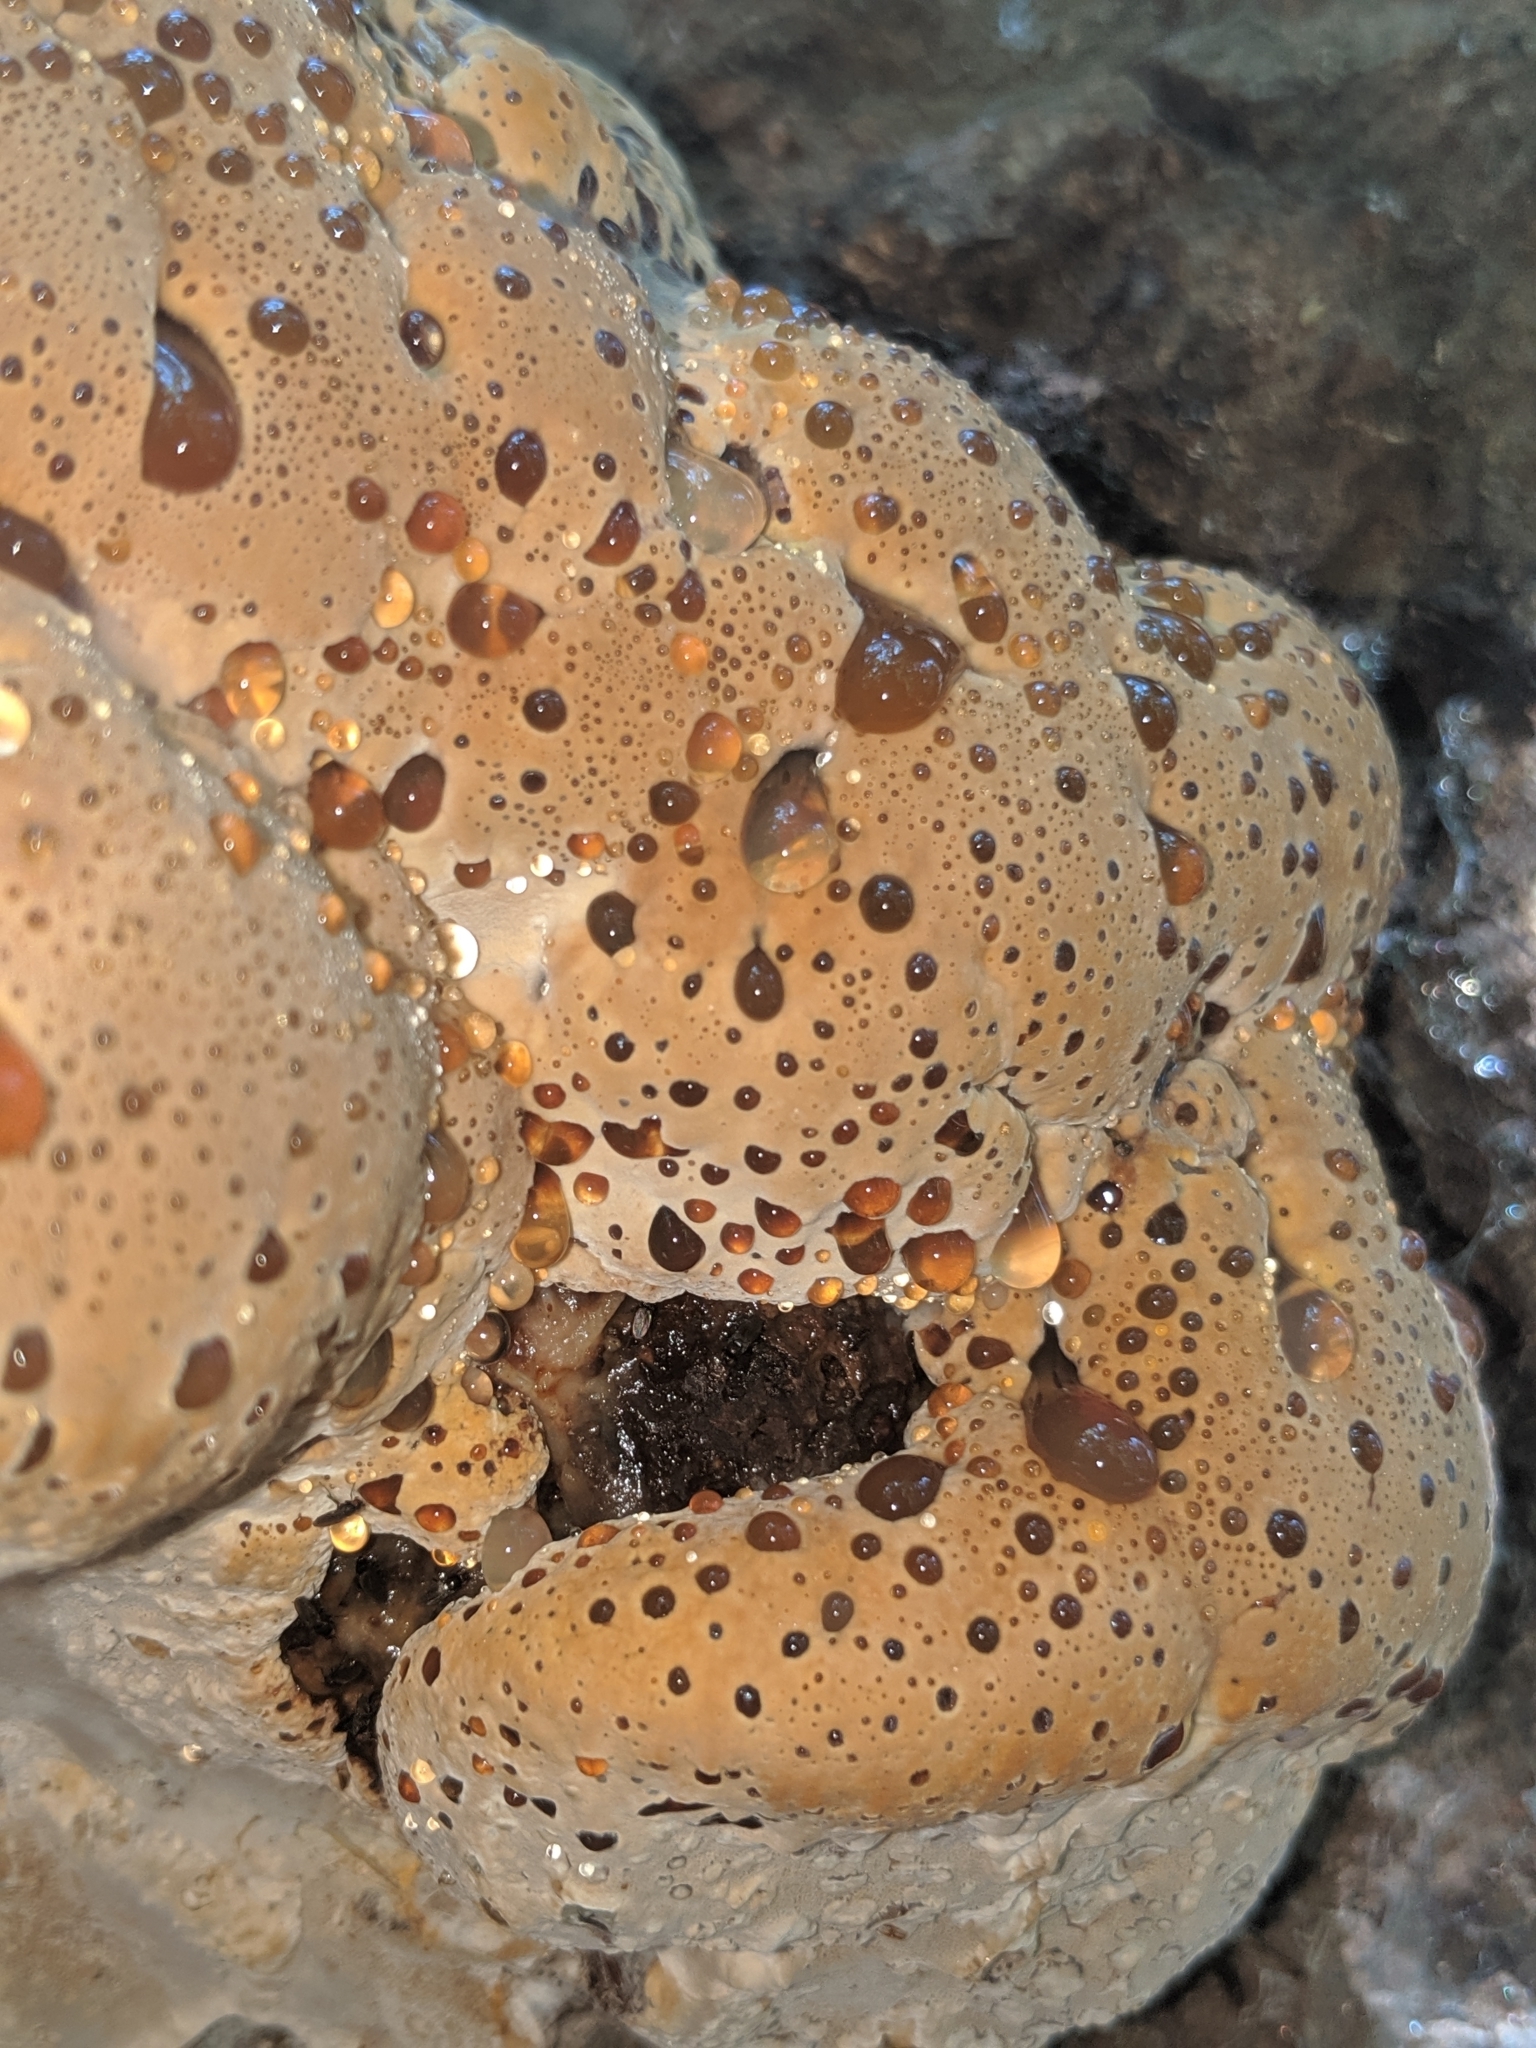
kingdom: Fungi
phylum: Basidiomycota
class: Agaricomycetes
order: Hymenochaetales
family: Hymenochaetaceae
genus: Pseudoinonotus
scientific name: Pseudoinonotus dryadeus
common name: Oak bracket
